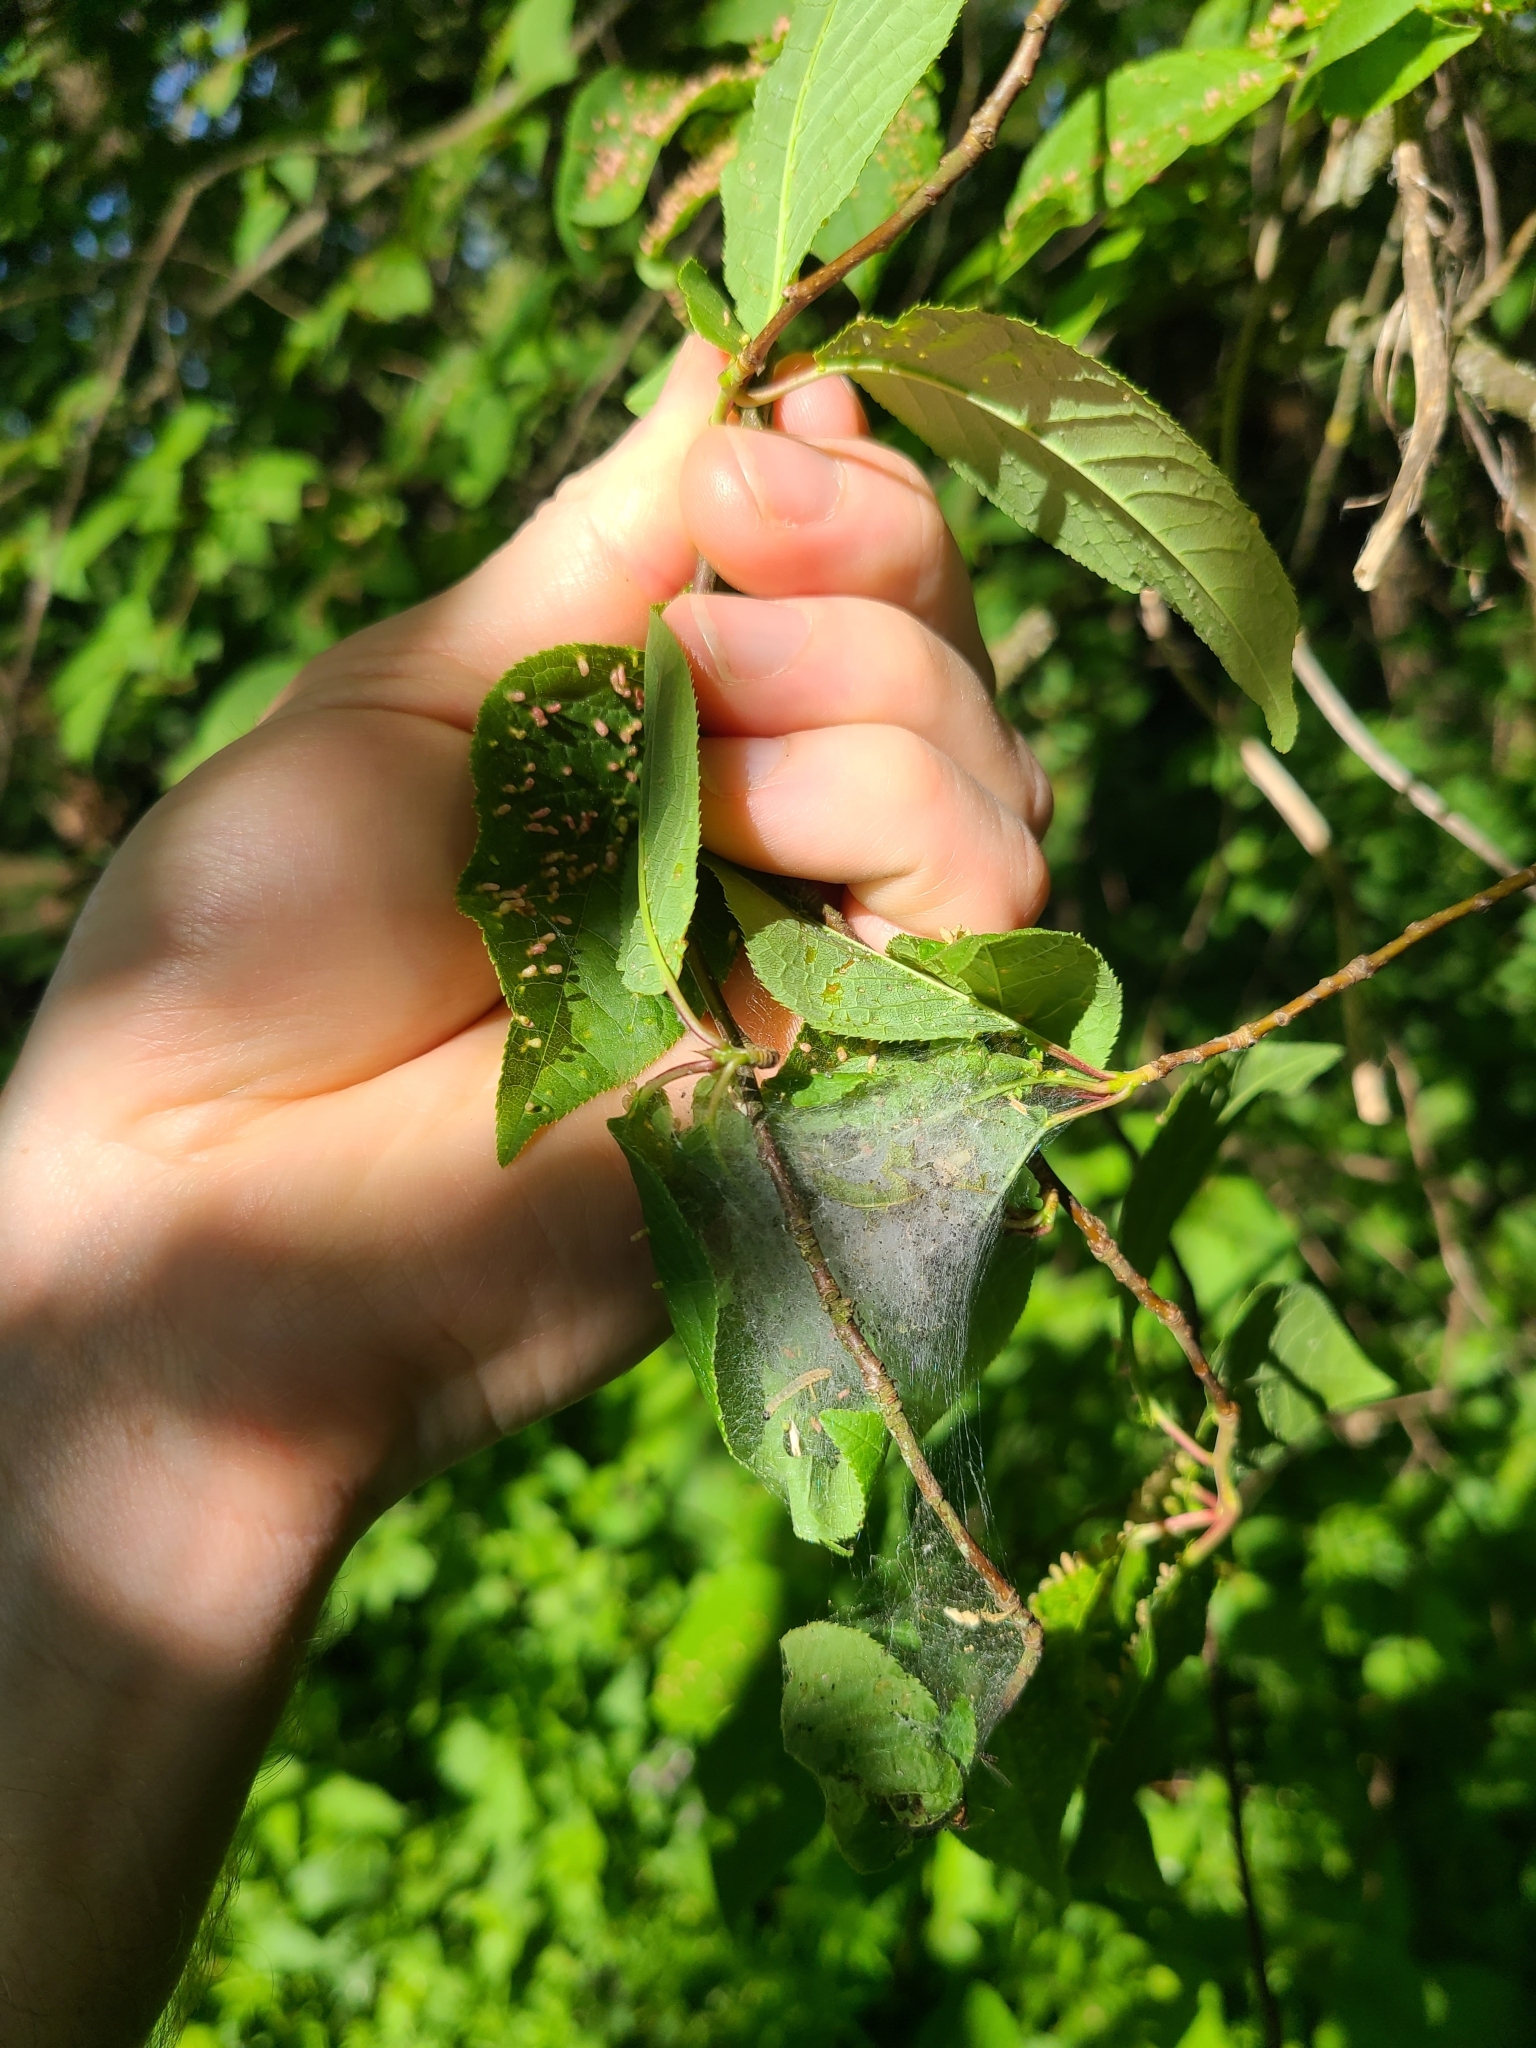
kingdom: Animalia
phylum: Arthropoda
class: Insecta
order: Lepidoptera
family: Yponomeutidae
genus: Yponomeuta
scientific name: Yponomeuta evonymella
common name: Bird-cherry ermine
